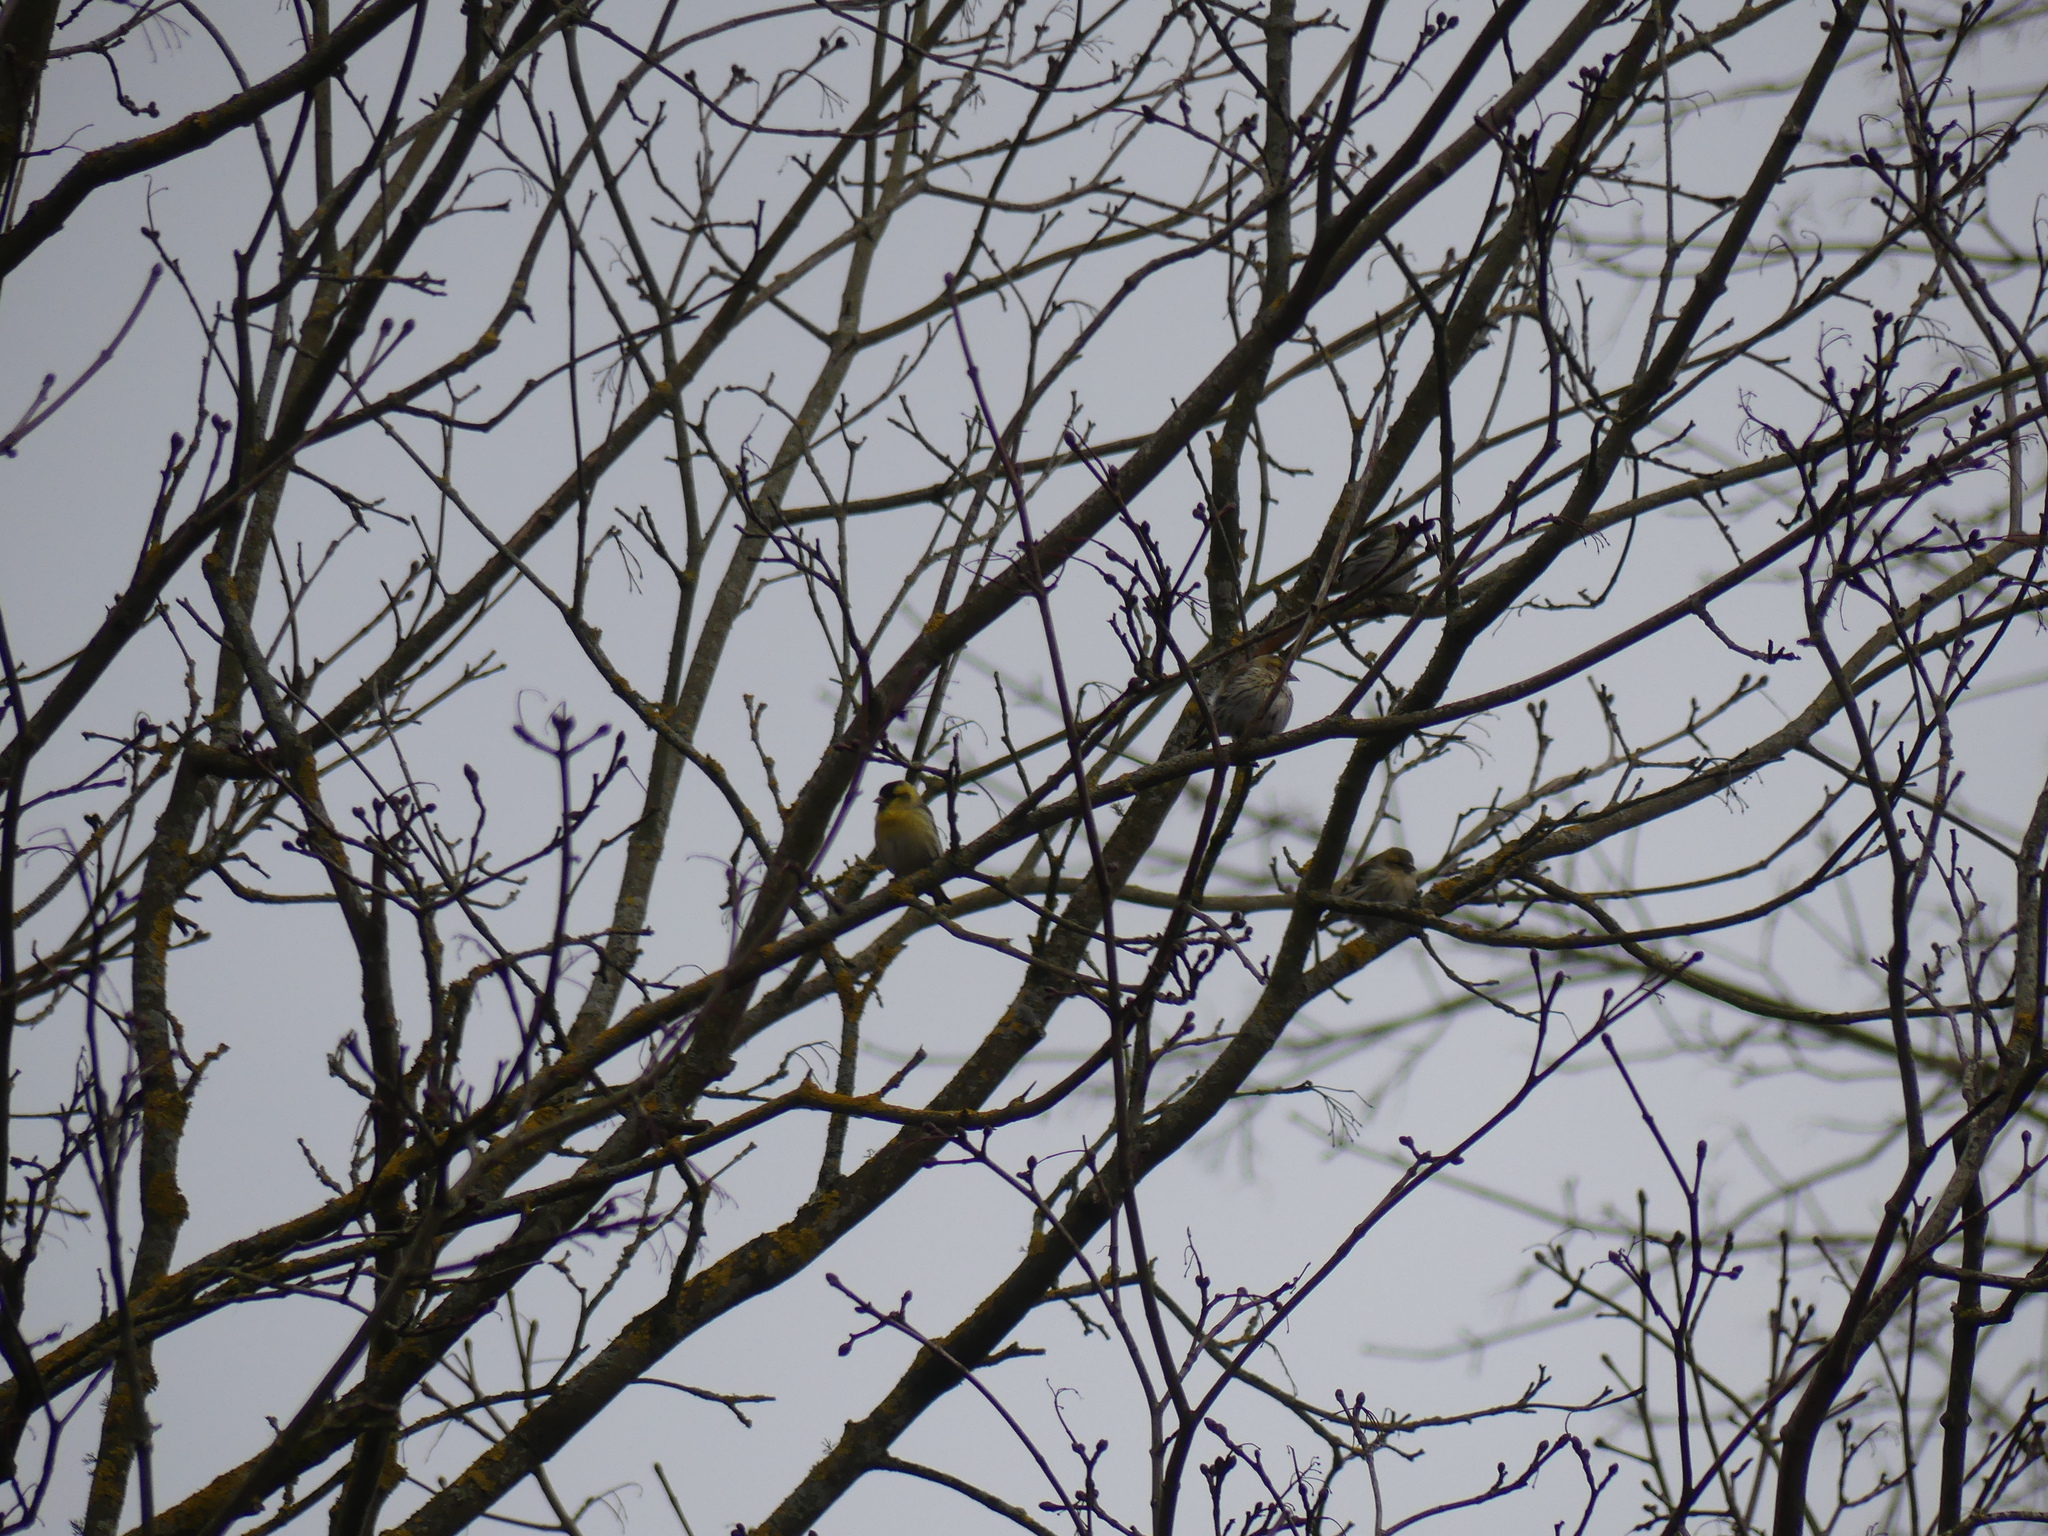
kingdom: Animalia
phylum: Chordata
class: Aves
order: Passeriformes
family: Fringillidae
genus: Spinus
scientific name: Spinus spinus
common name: Eurasian siskin
